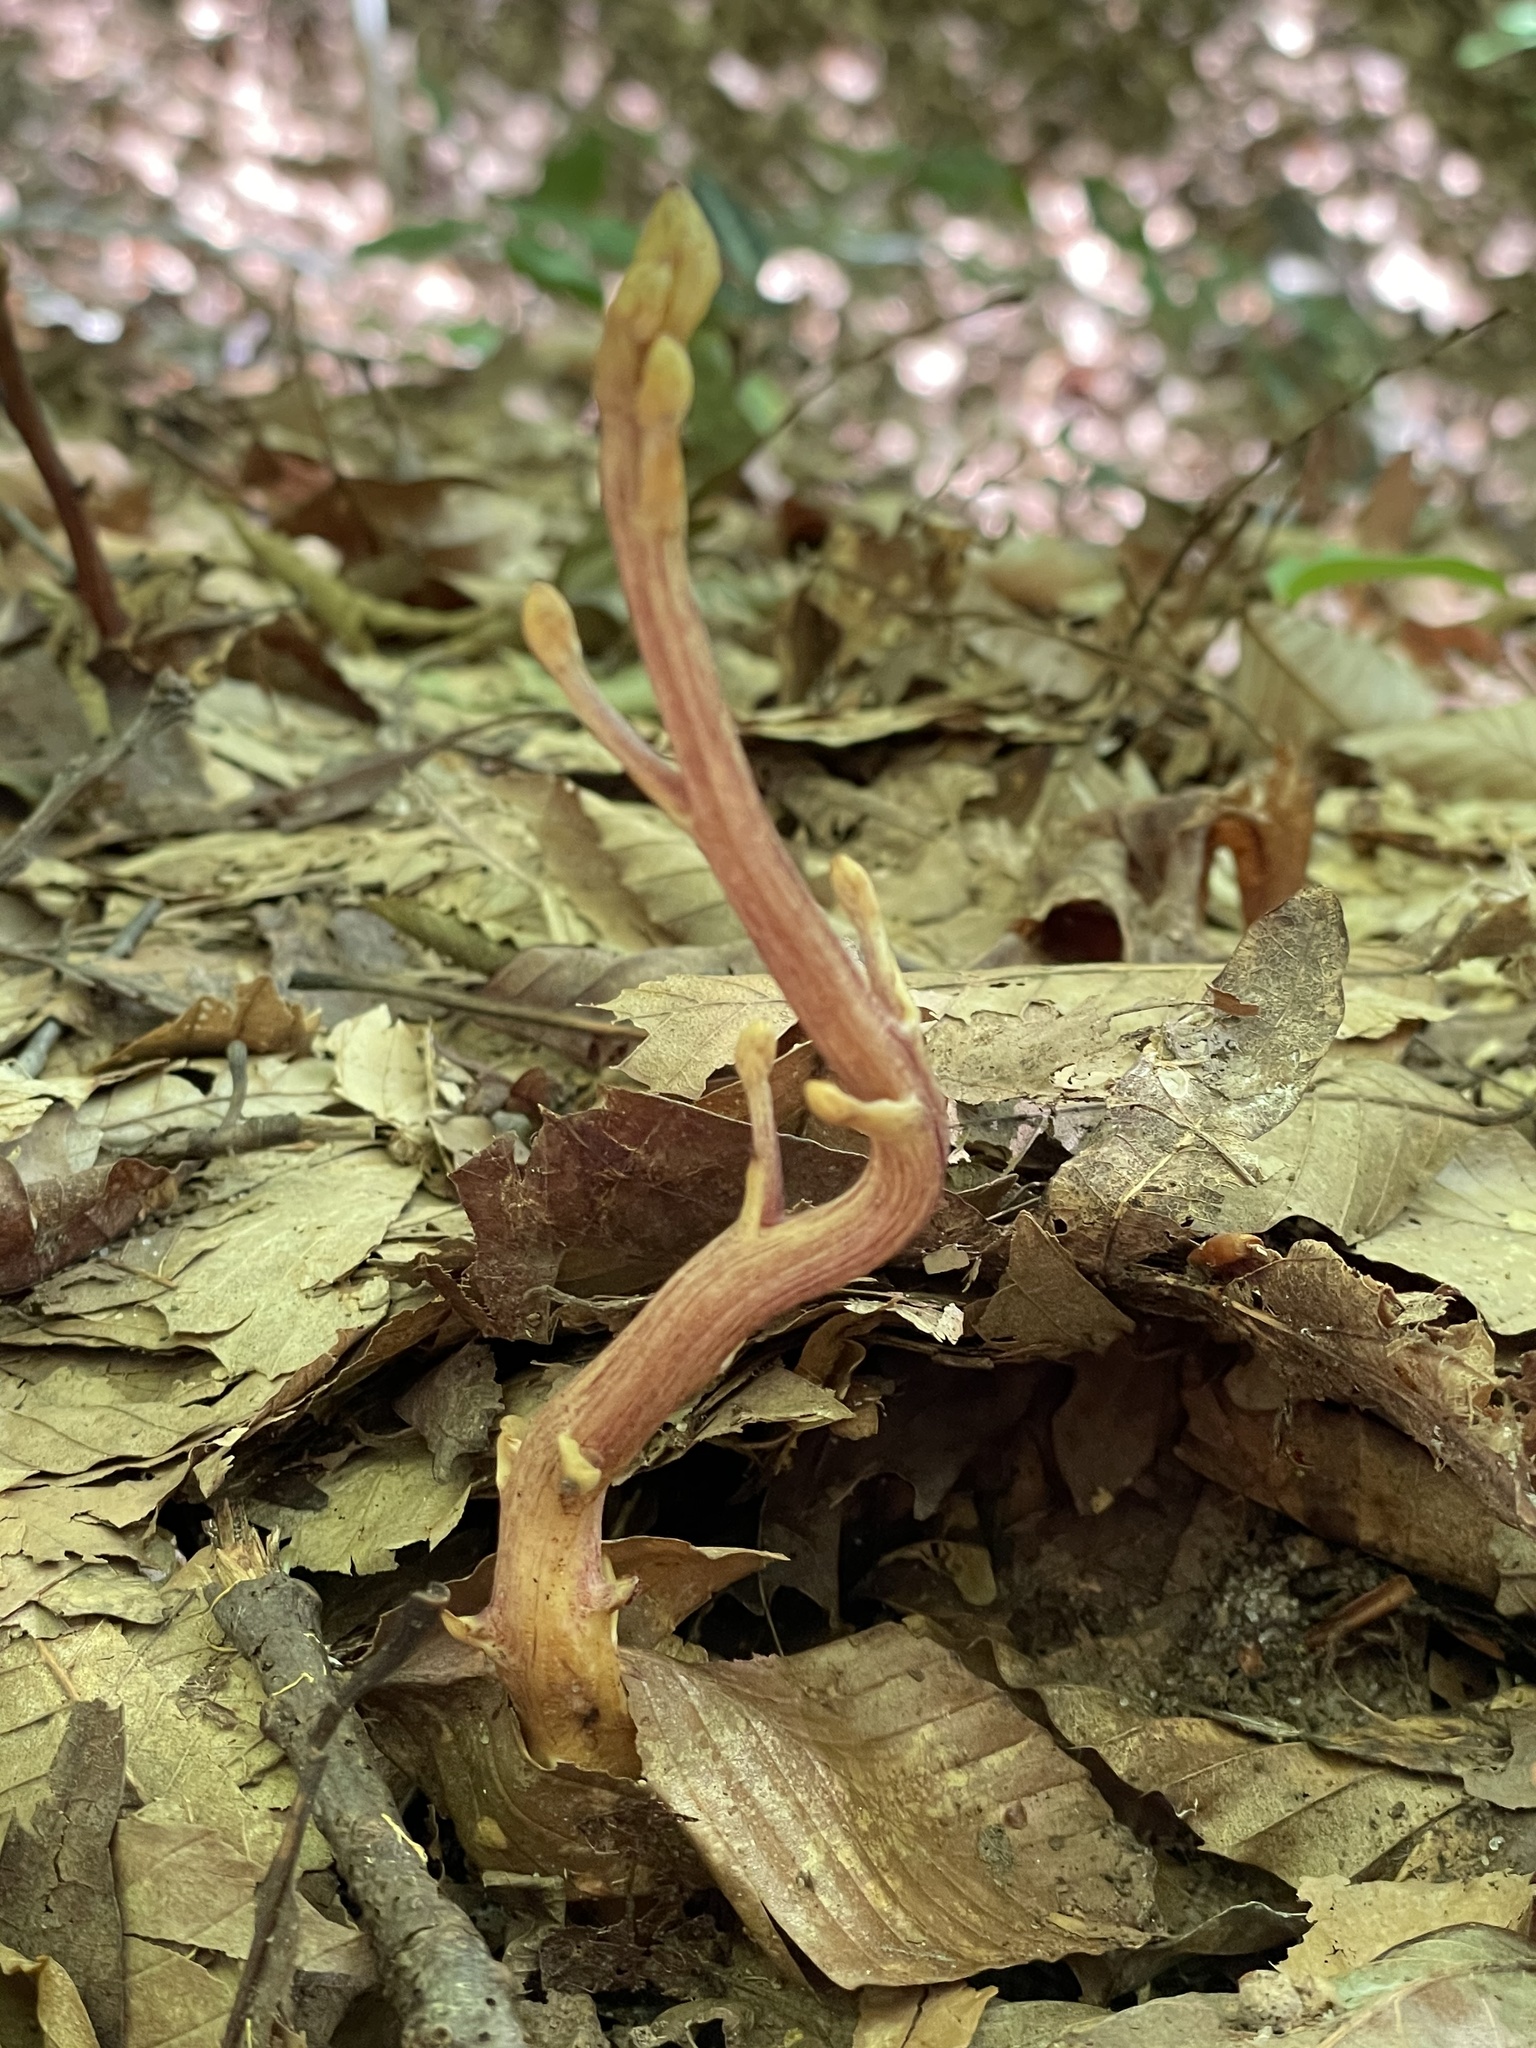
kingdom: Plantae
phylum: Tracheophyta
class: Magnoliopsida
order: Lamiales
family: Orobanchaceae
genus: Epifagus
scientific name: Epifagus virginiana
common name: Beechdrops
